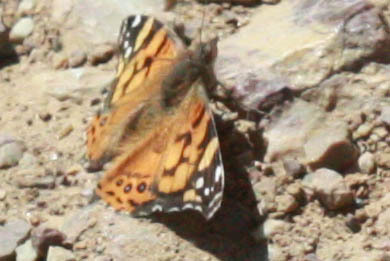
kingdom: Animalia
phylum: Arthropoda
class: Insecta
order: Lepidoptera
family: Nymphalidae
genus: Vanessa
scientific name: Vanessa annabella
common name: West coast lady
